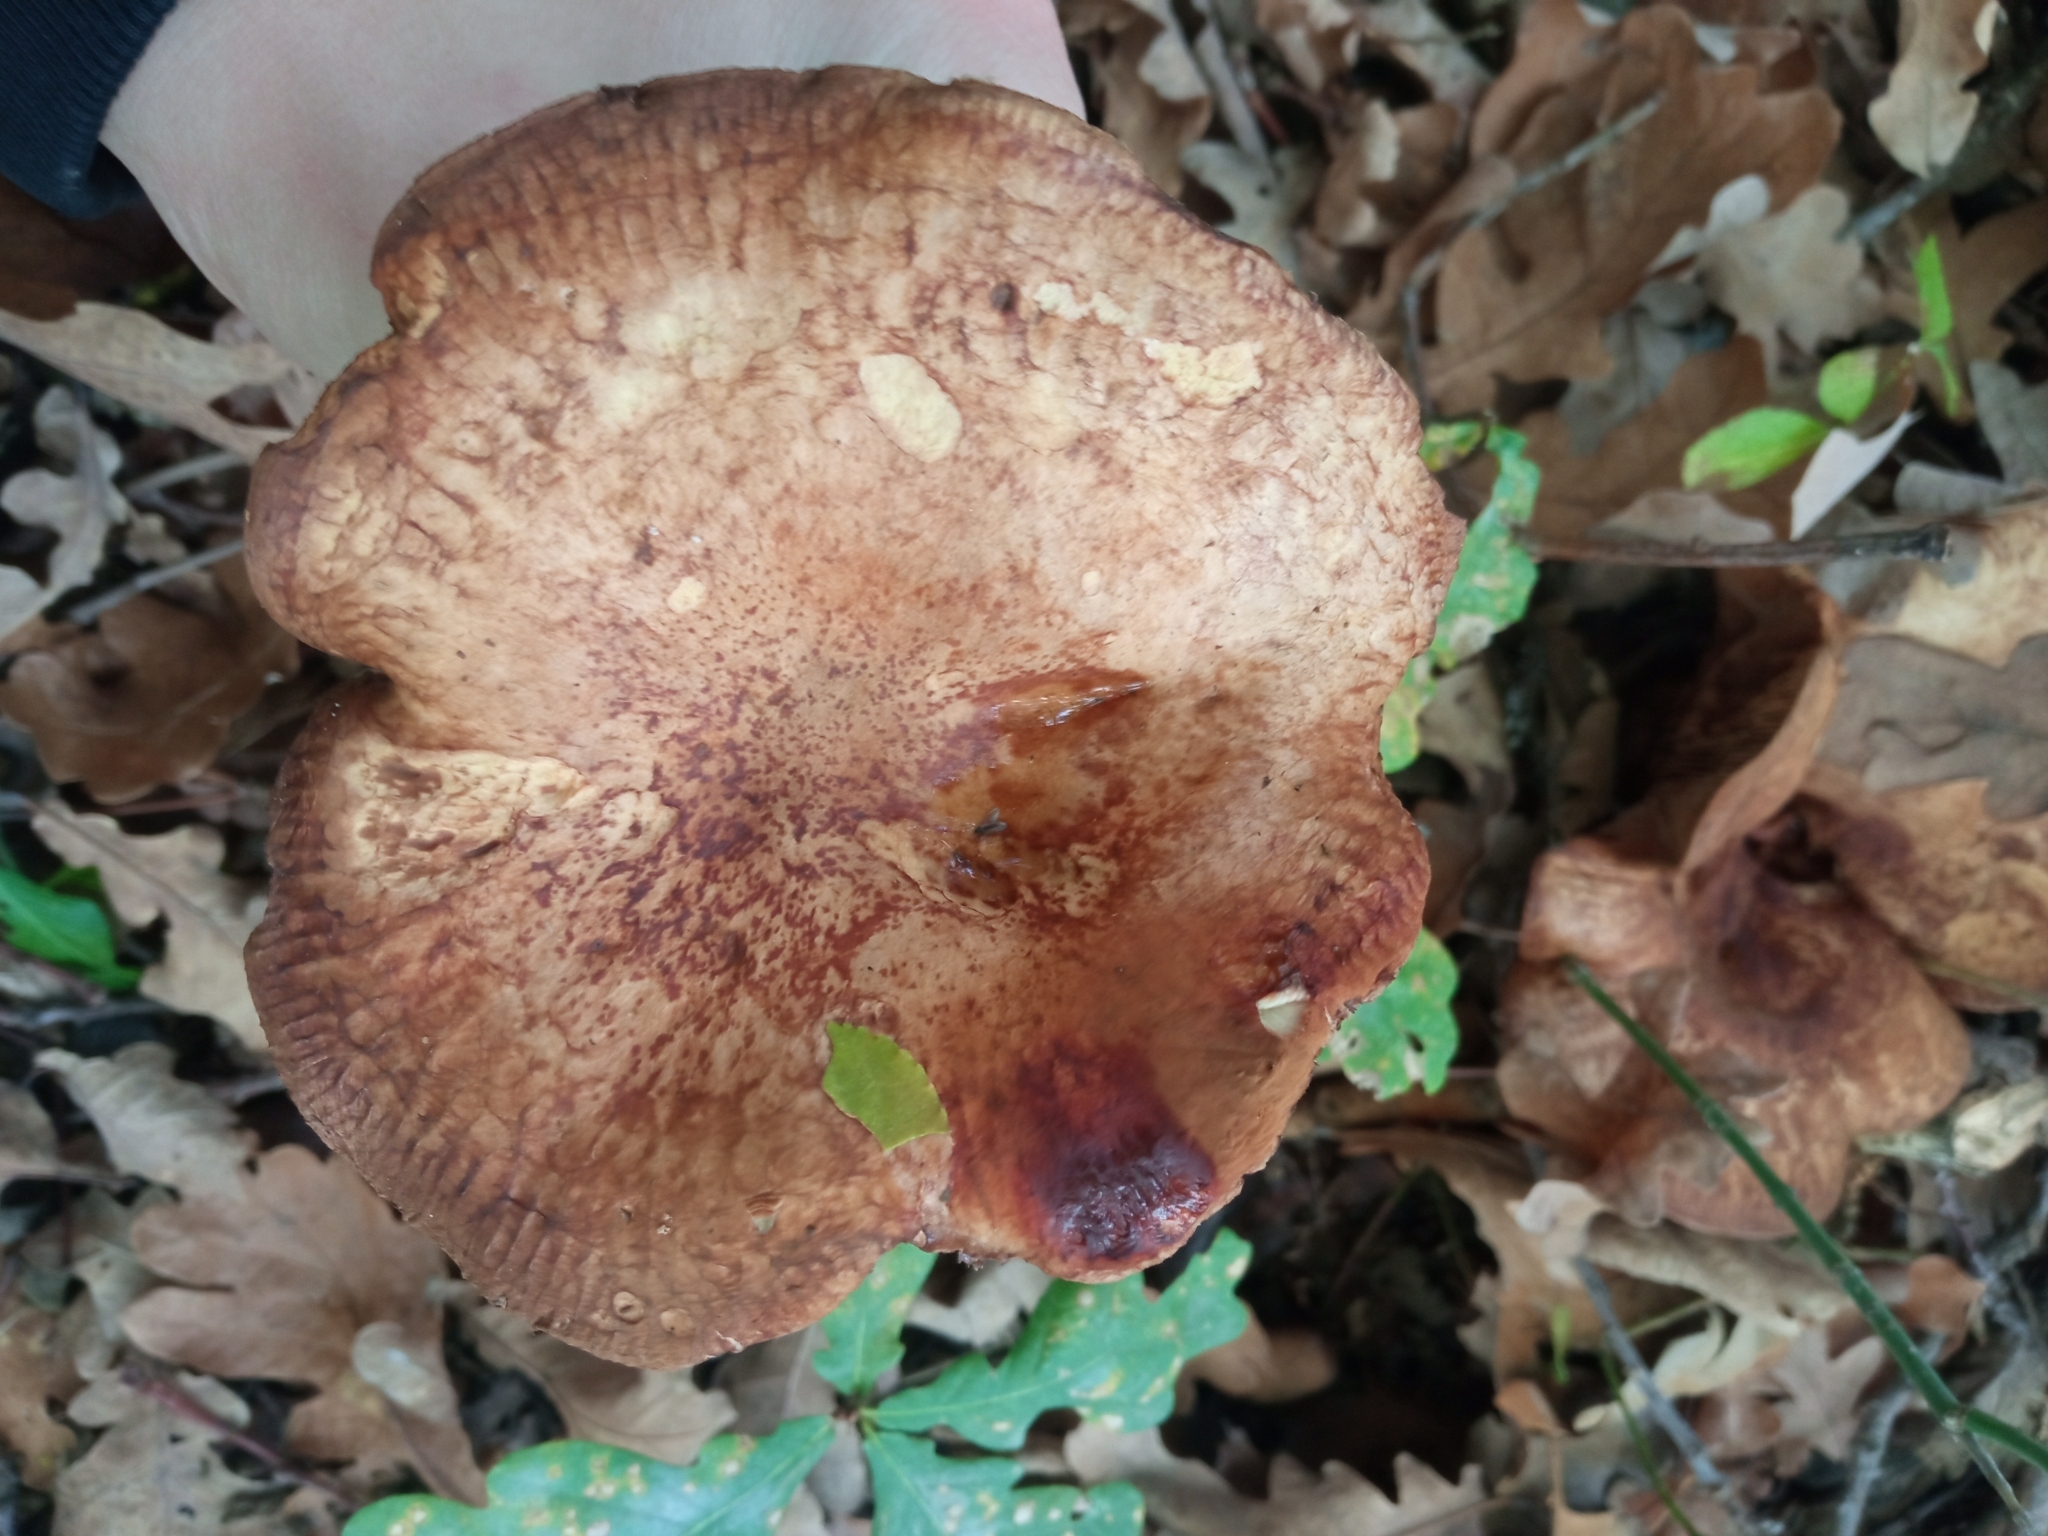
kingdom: Fungi
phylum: Basidiomycota
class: Agaricomycetes
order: Boletales
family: Paxillaceae
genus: Paxillus
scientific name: Paxillus involutus
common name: Brown roll rim
